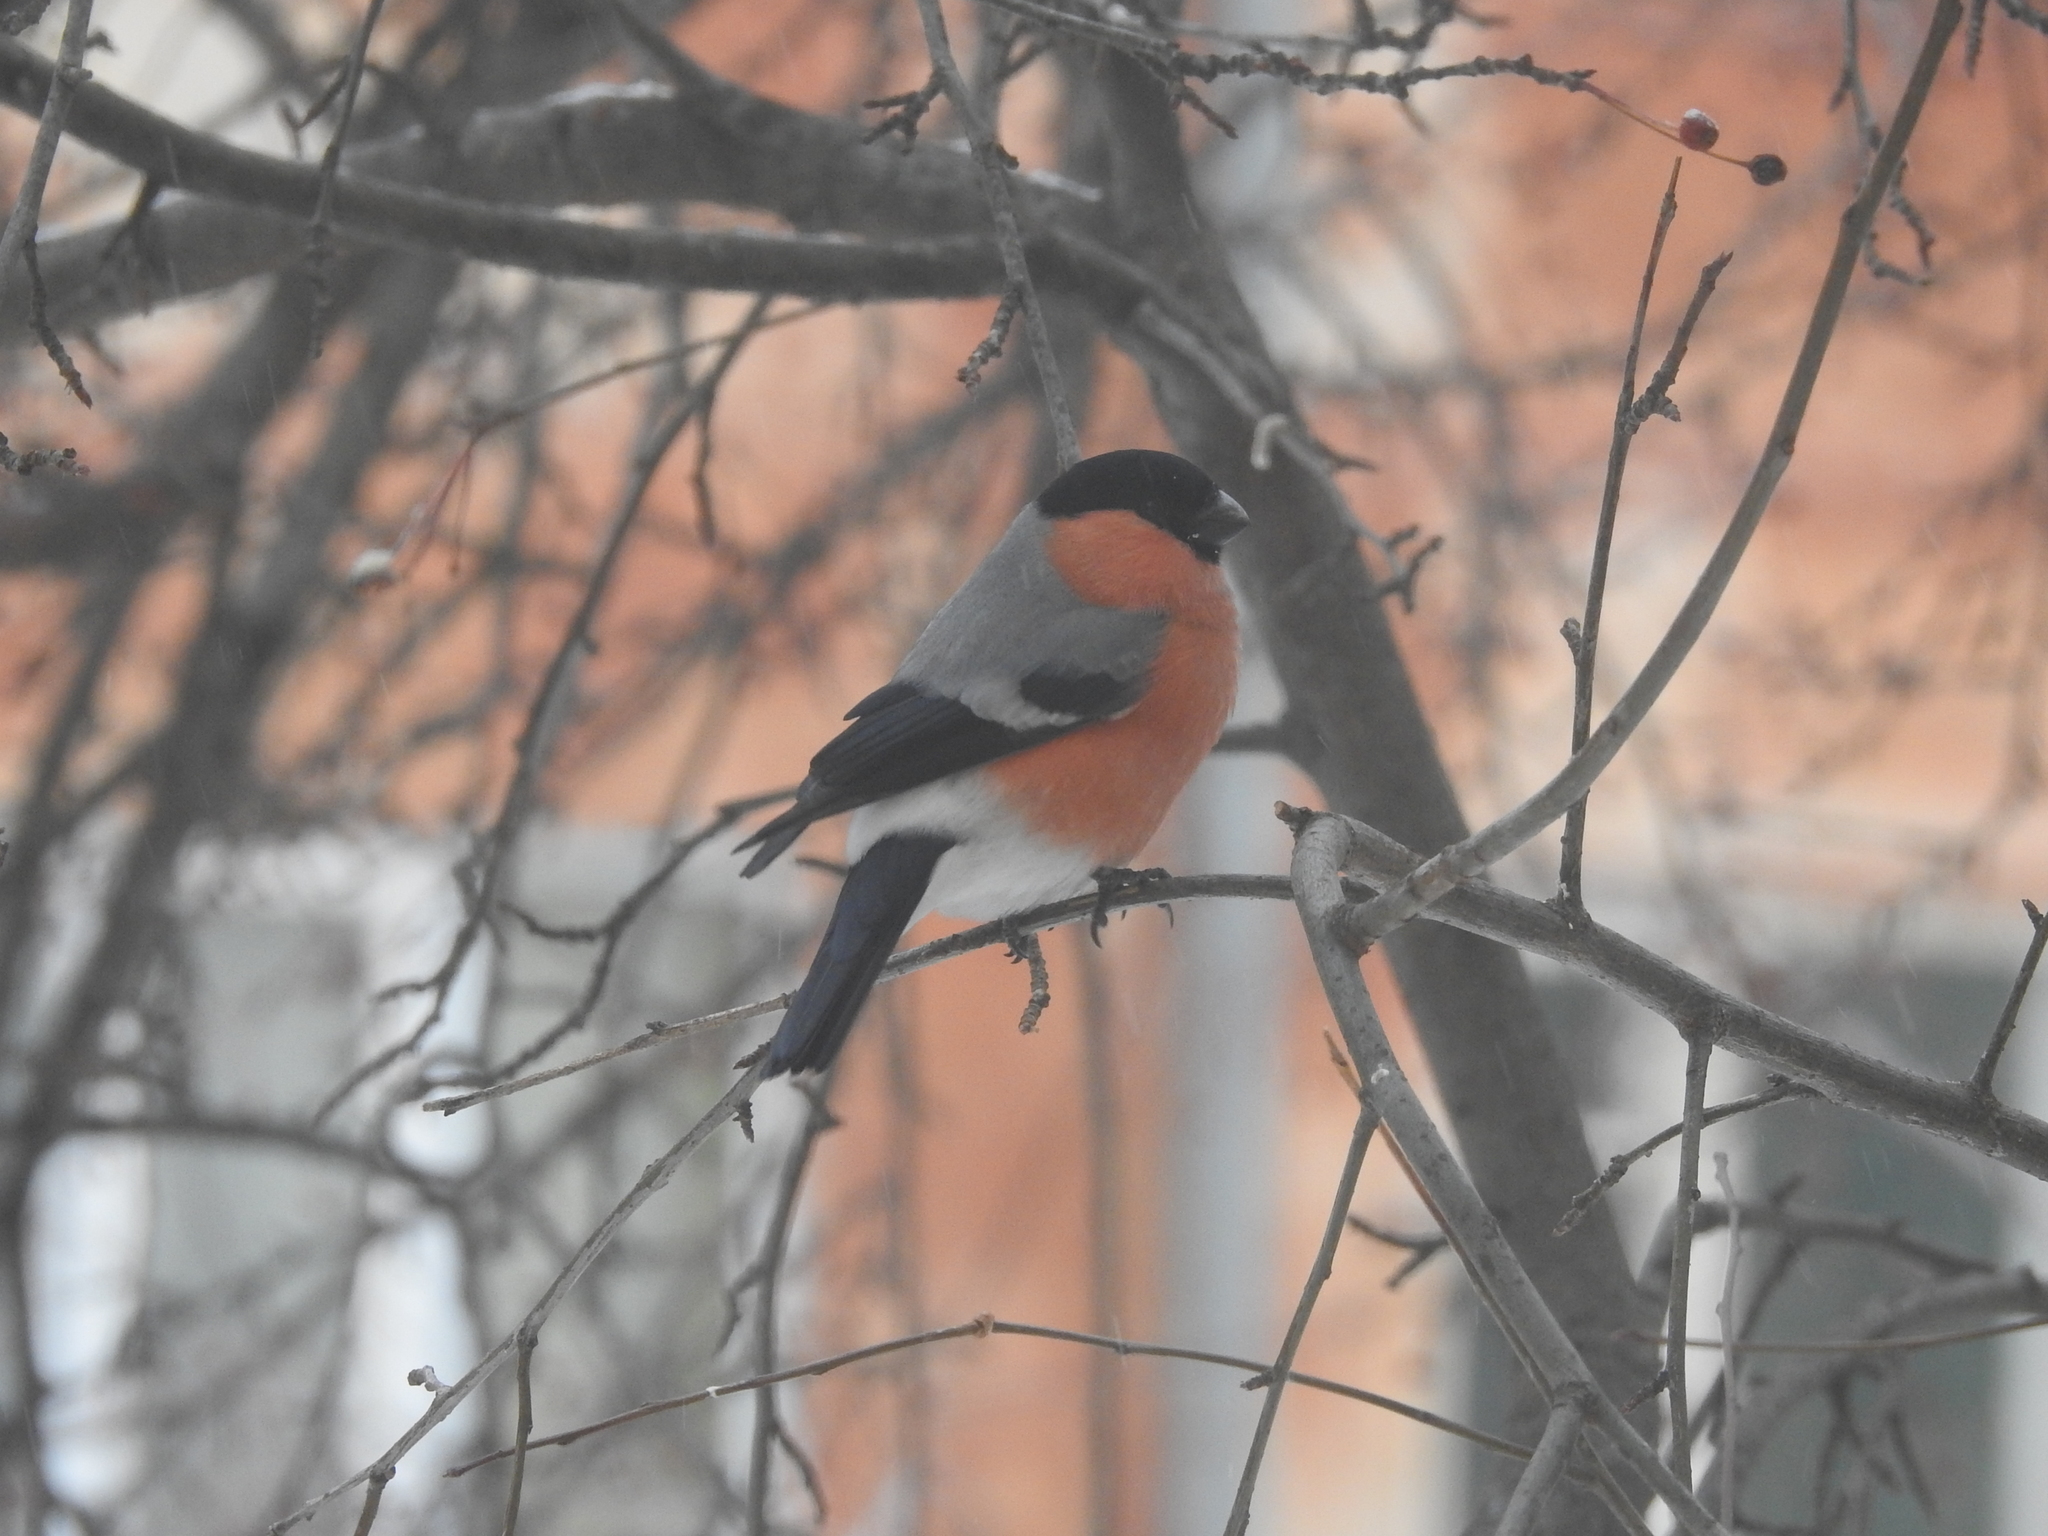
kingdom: Animalia
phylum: Chordata
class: Aves
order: Passeriformes
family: Fringillidae
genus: Pyrrhula
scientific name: Pyrrhula pyrrhula
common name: Eurasian bullfinch
